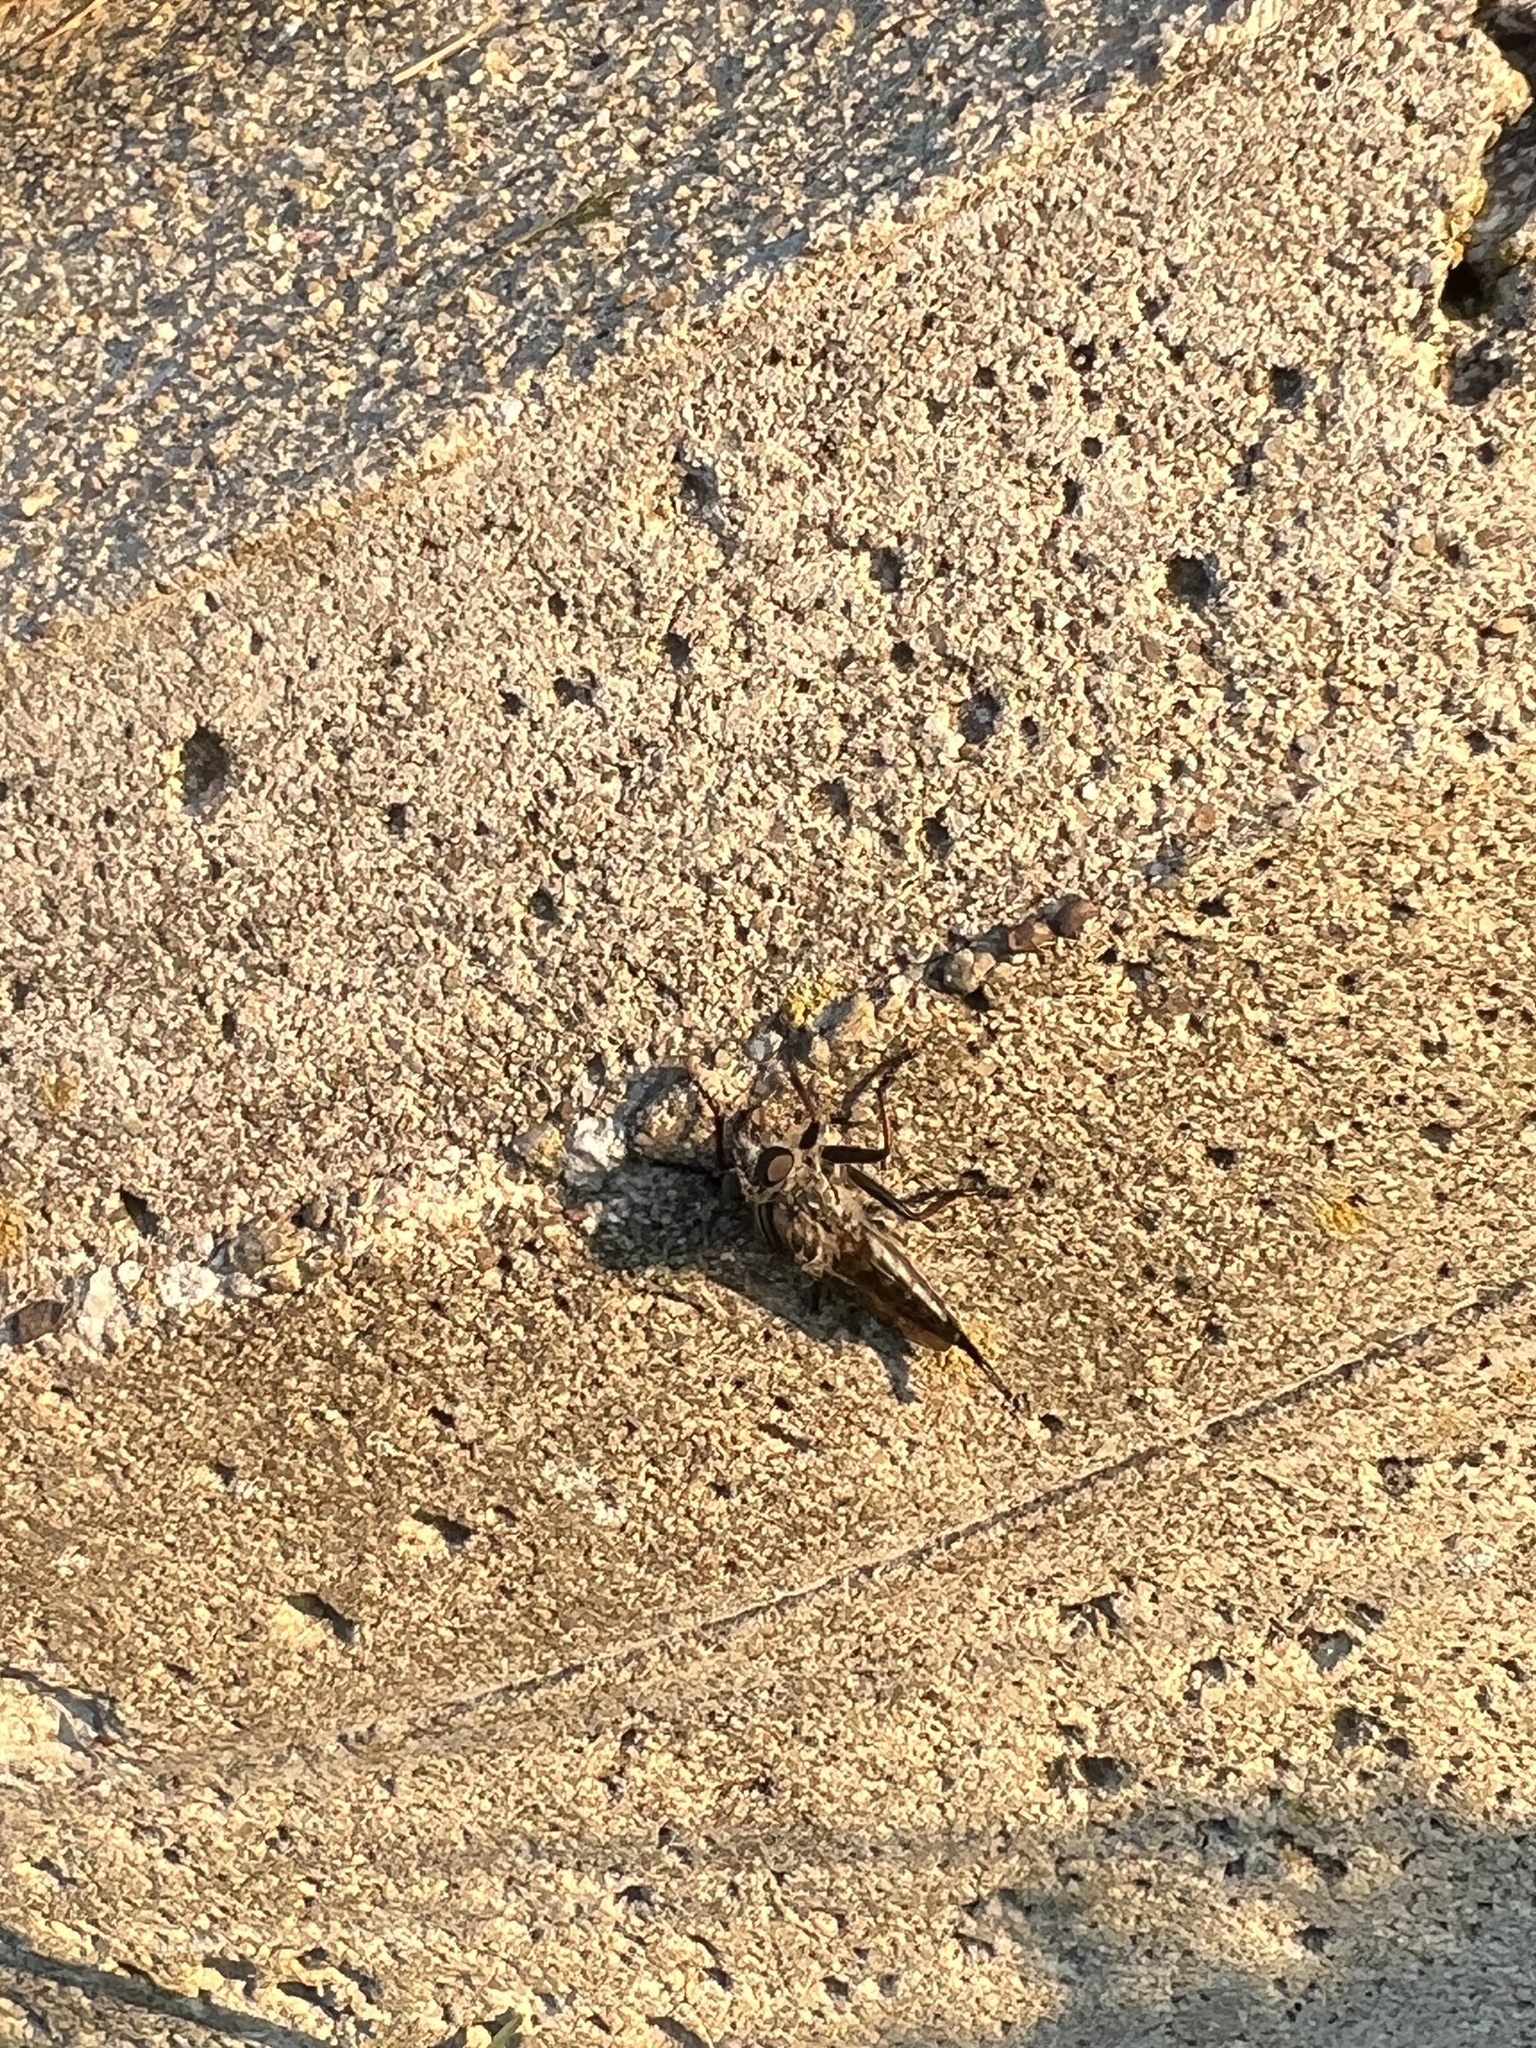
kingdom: Animalia
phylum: Arthropoda
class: Insecta
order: Diptera
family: Asilidae
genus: Efferia
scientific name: Efferia aestuans
